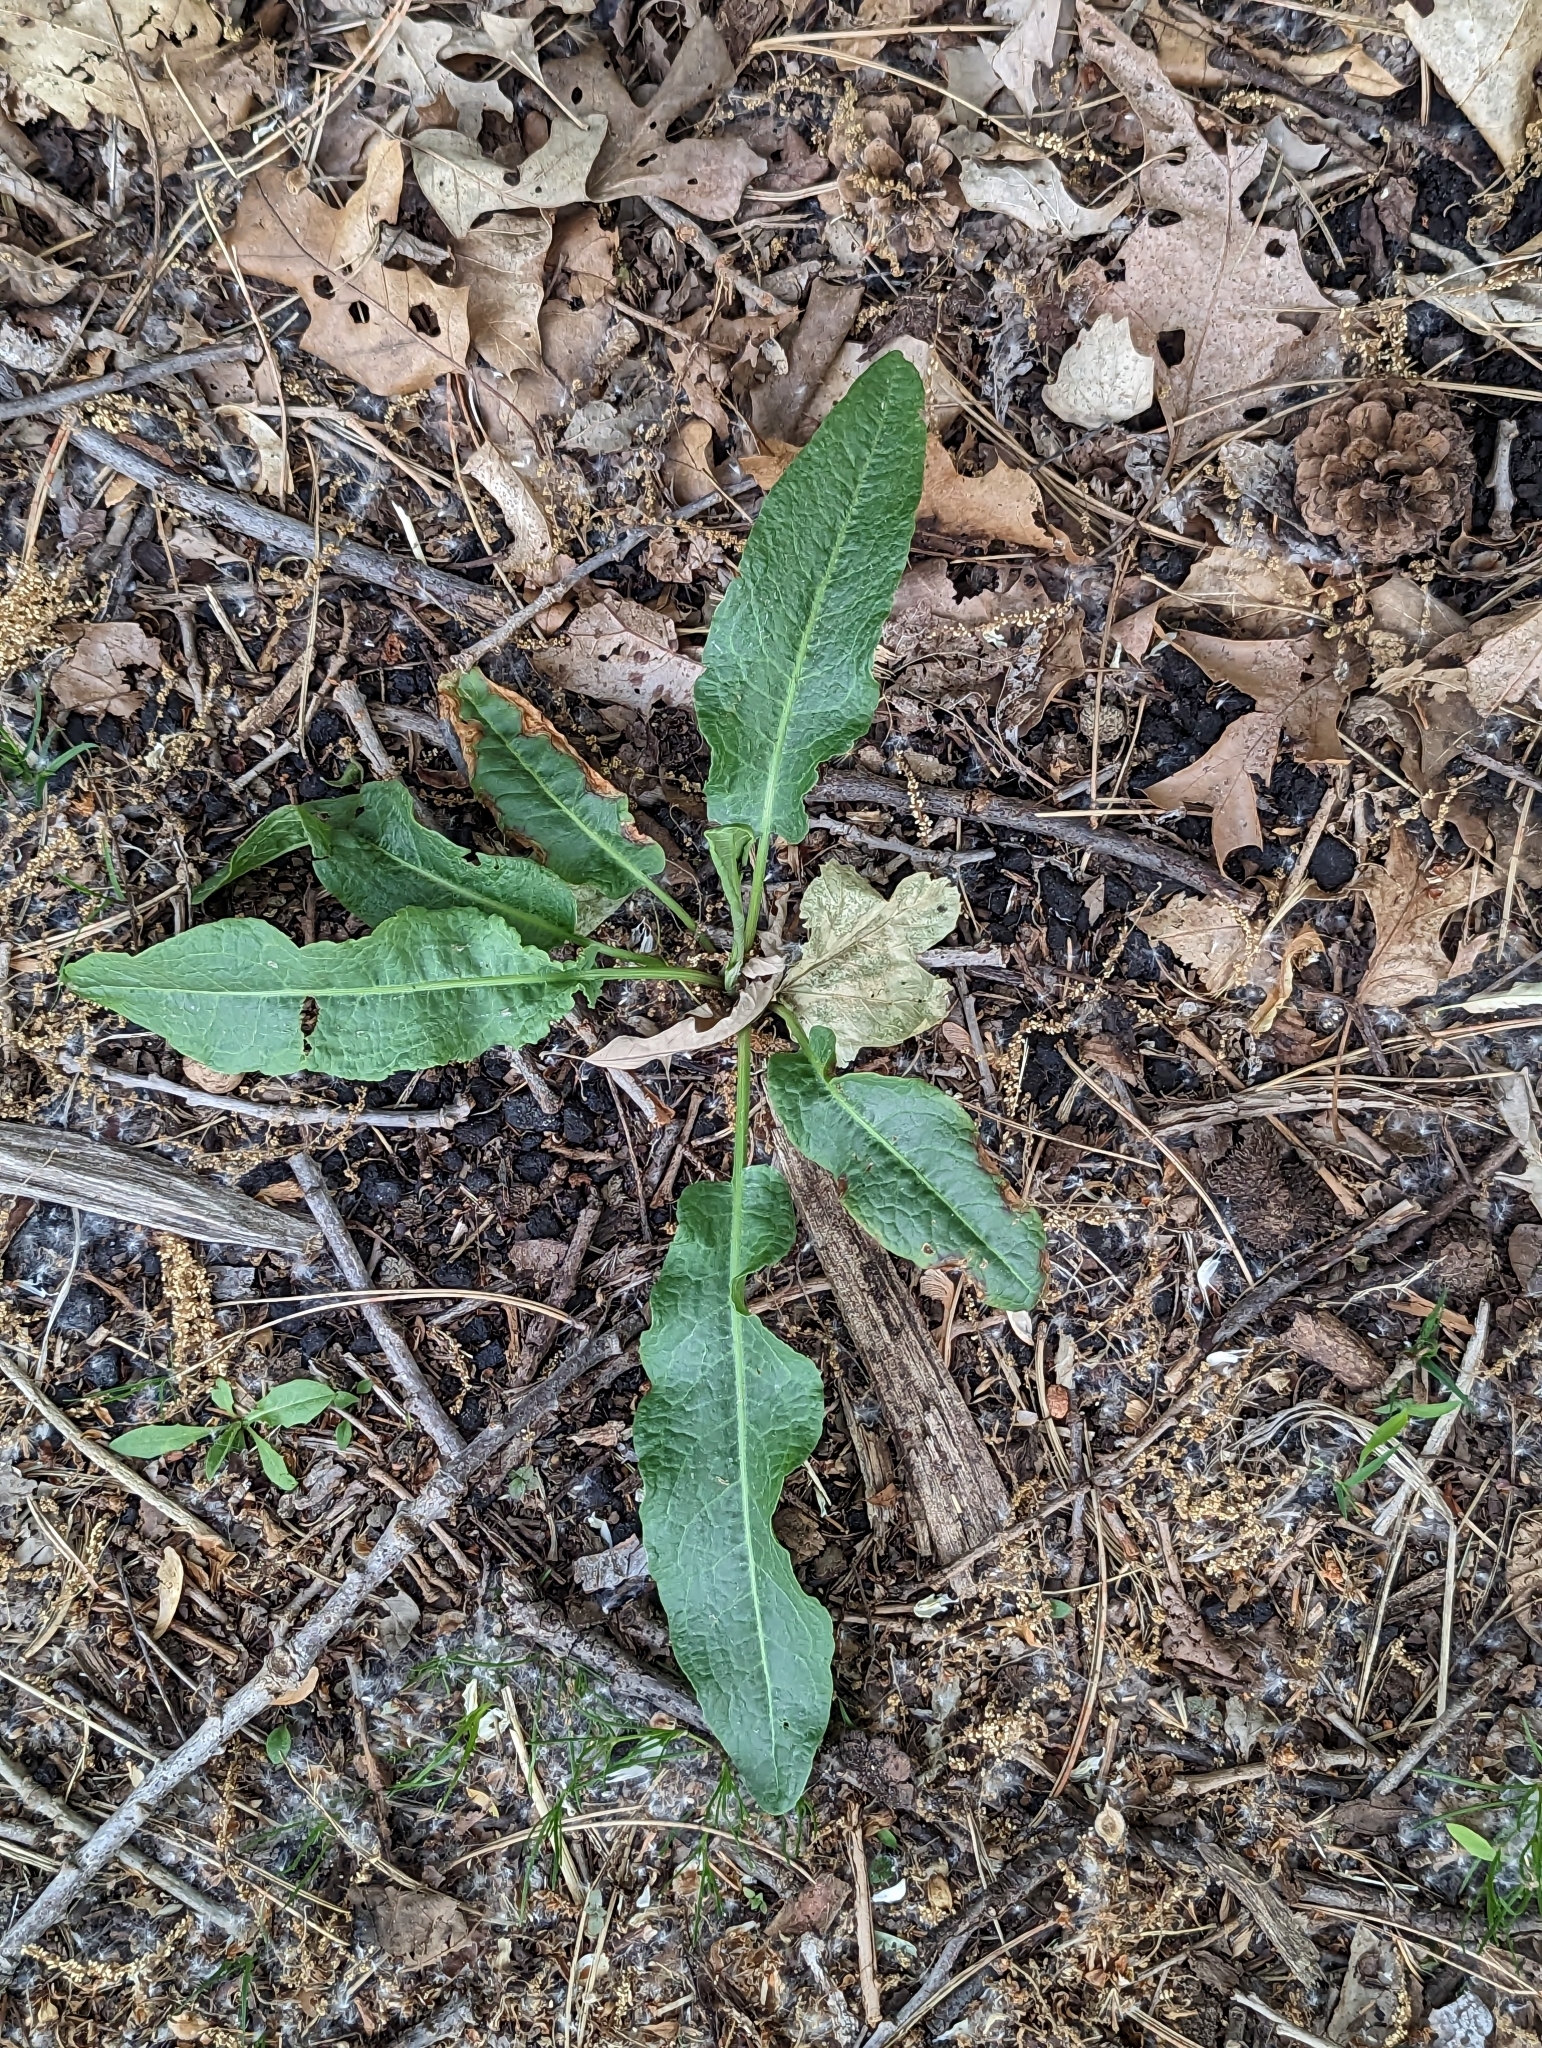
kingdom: Plantae
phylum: Tracheophyta
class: Magnoliopsida
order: Caryophyllales
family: Polygonaceae
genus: Rumex
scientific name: Rumex crispus
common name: Curled dock
